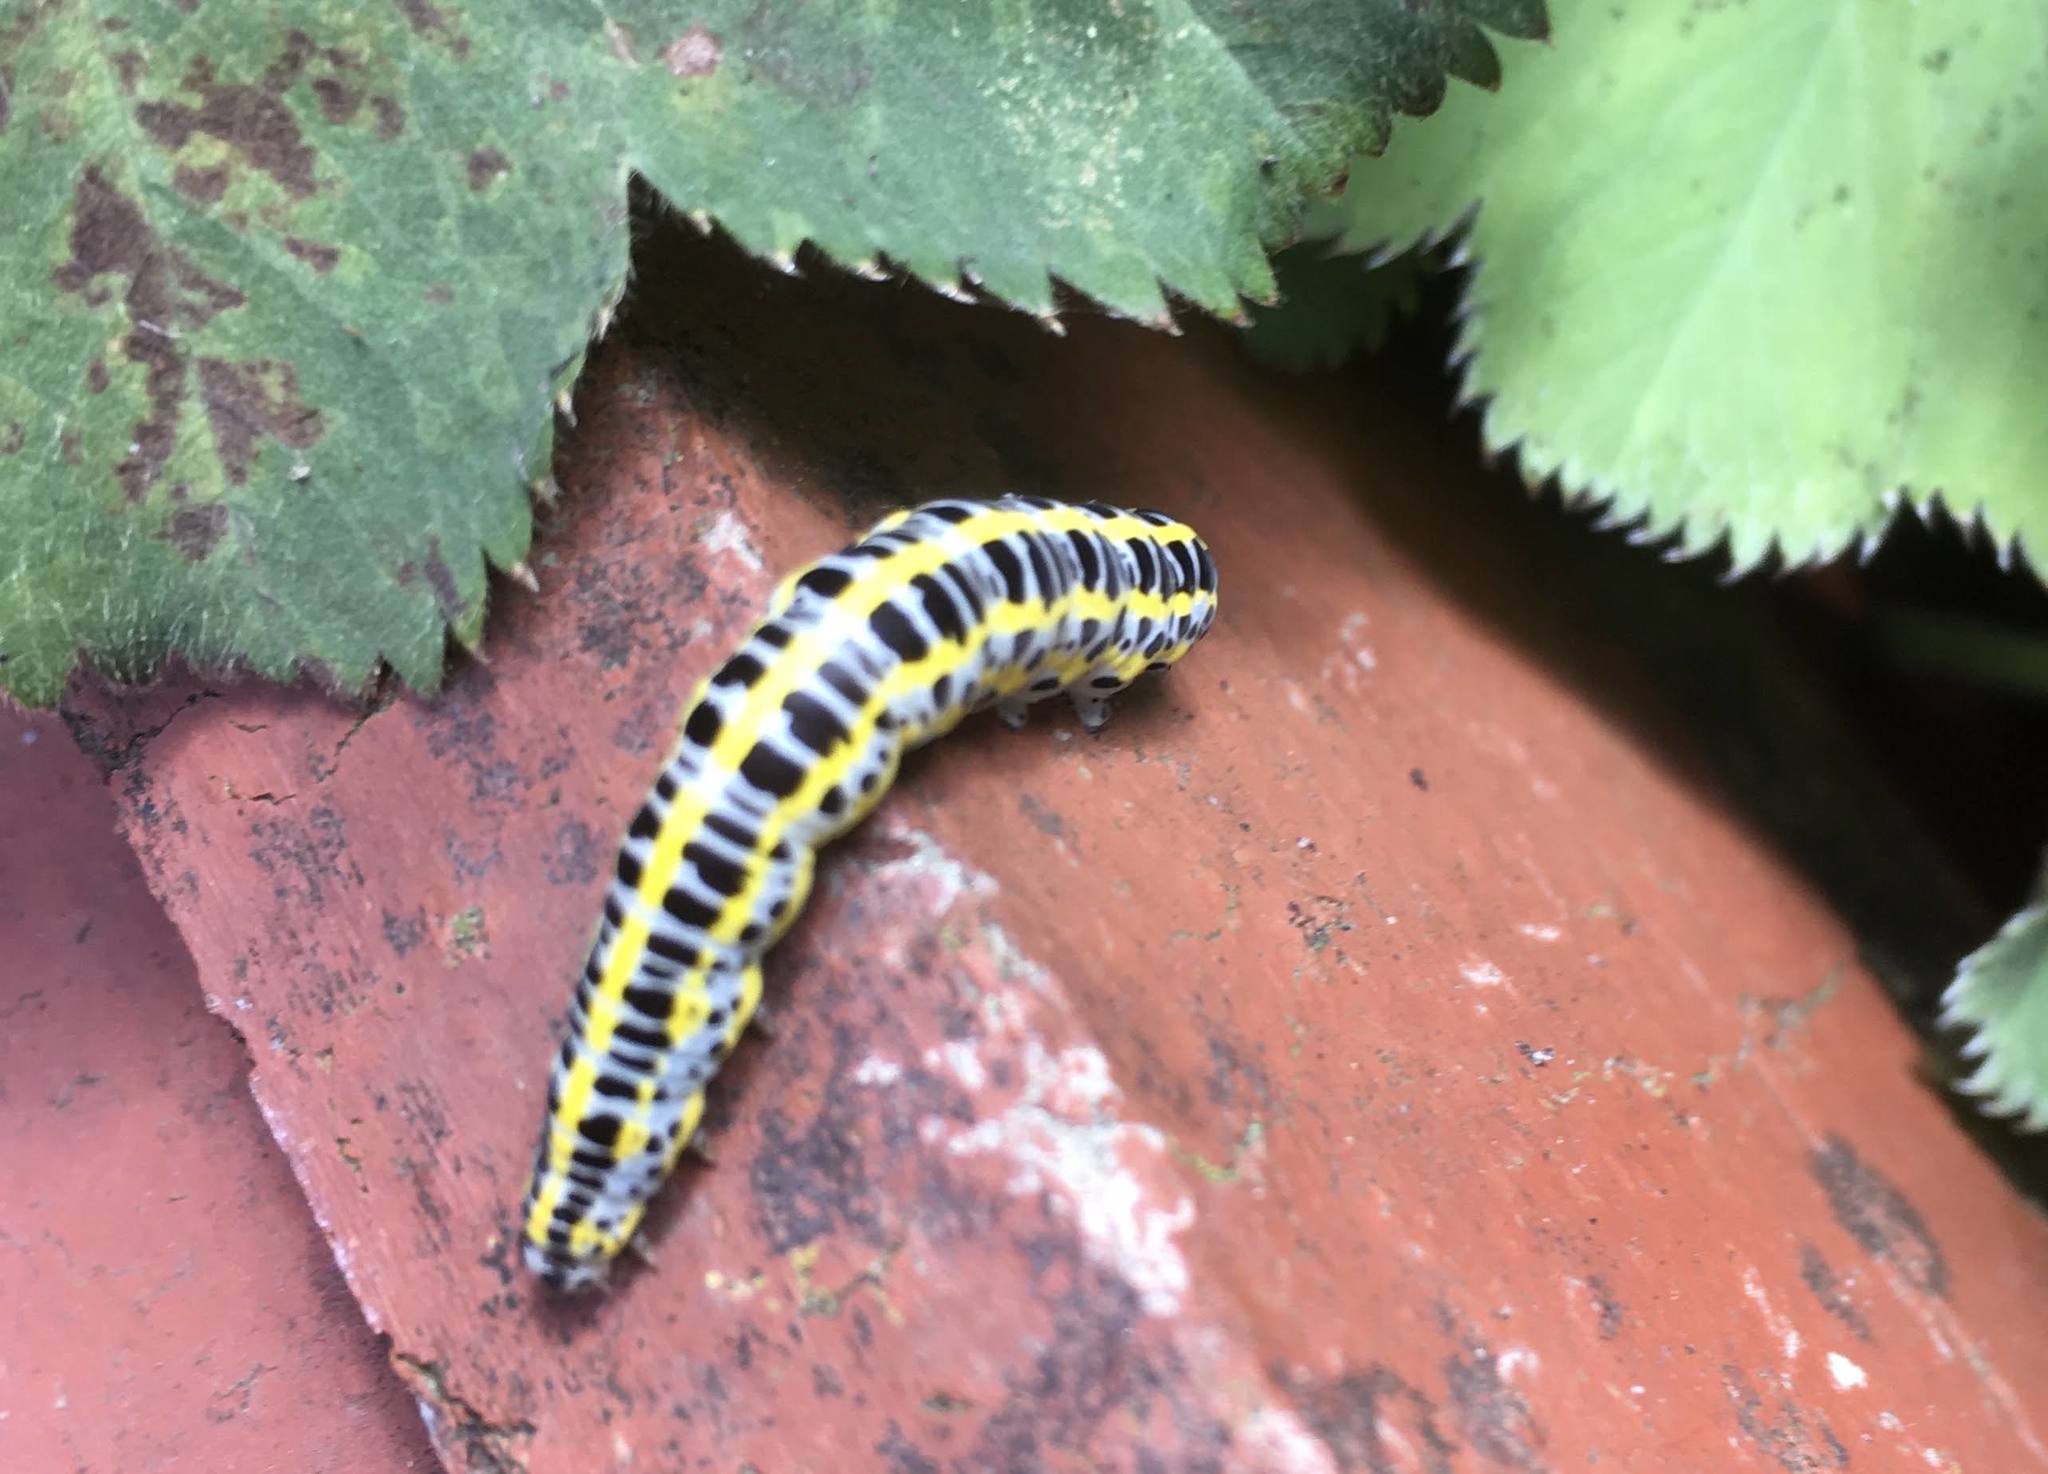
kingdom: Animalia
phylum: Arthropoda
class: Insecta
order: Lepidoptera
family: Noctuidae
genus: Calophasia
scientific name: Calophasia lunula
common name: Toadflax brocade
